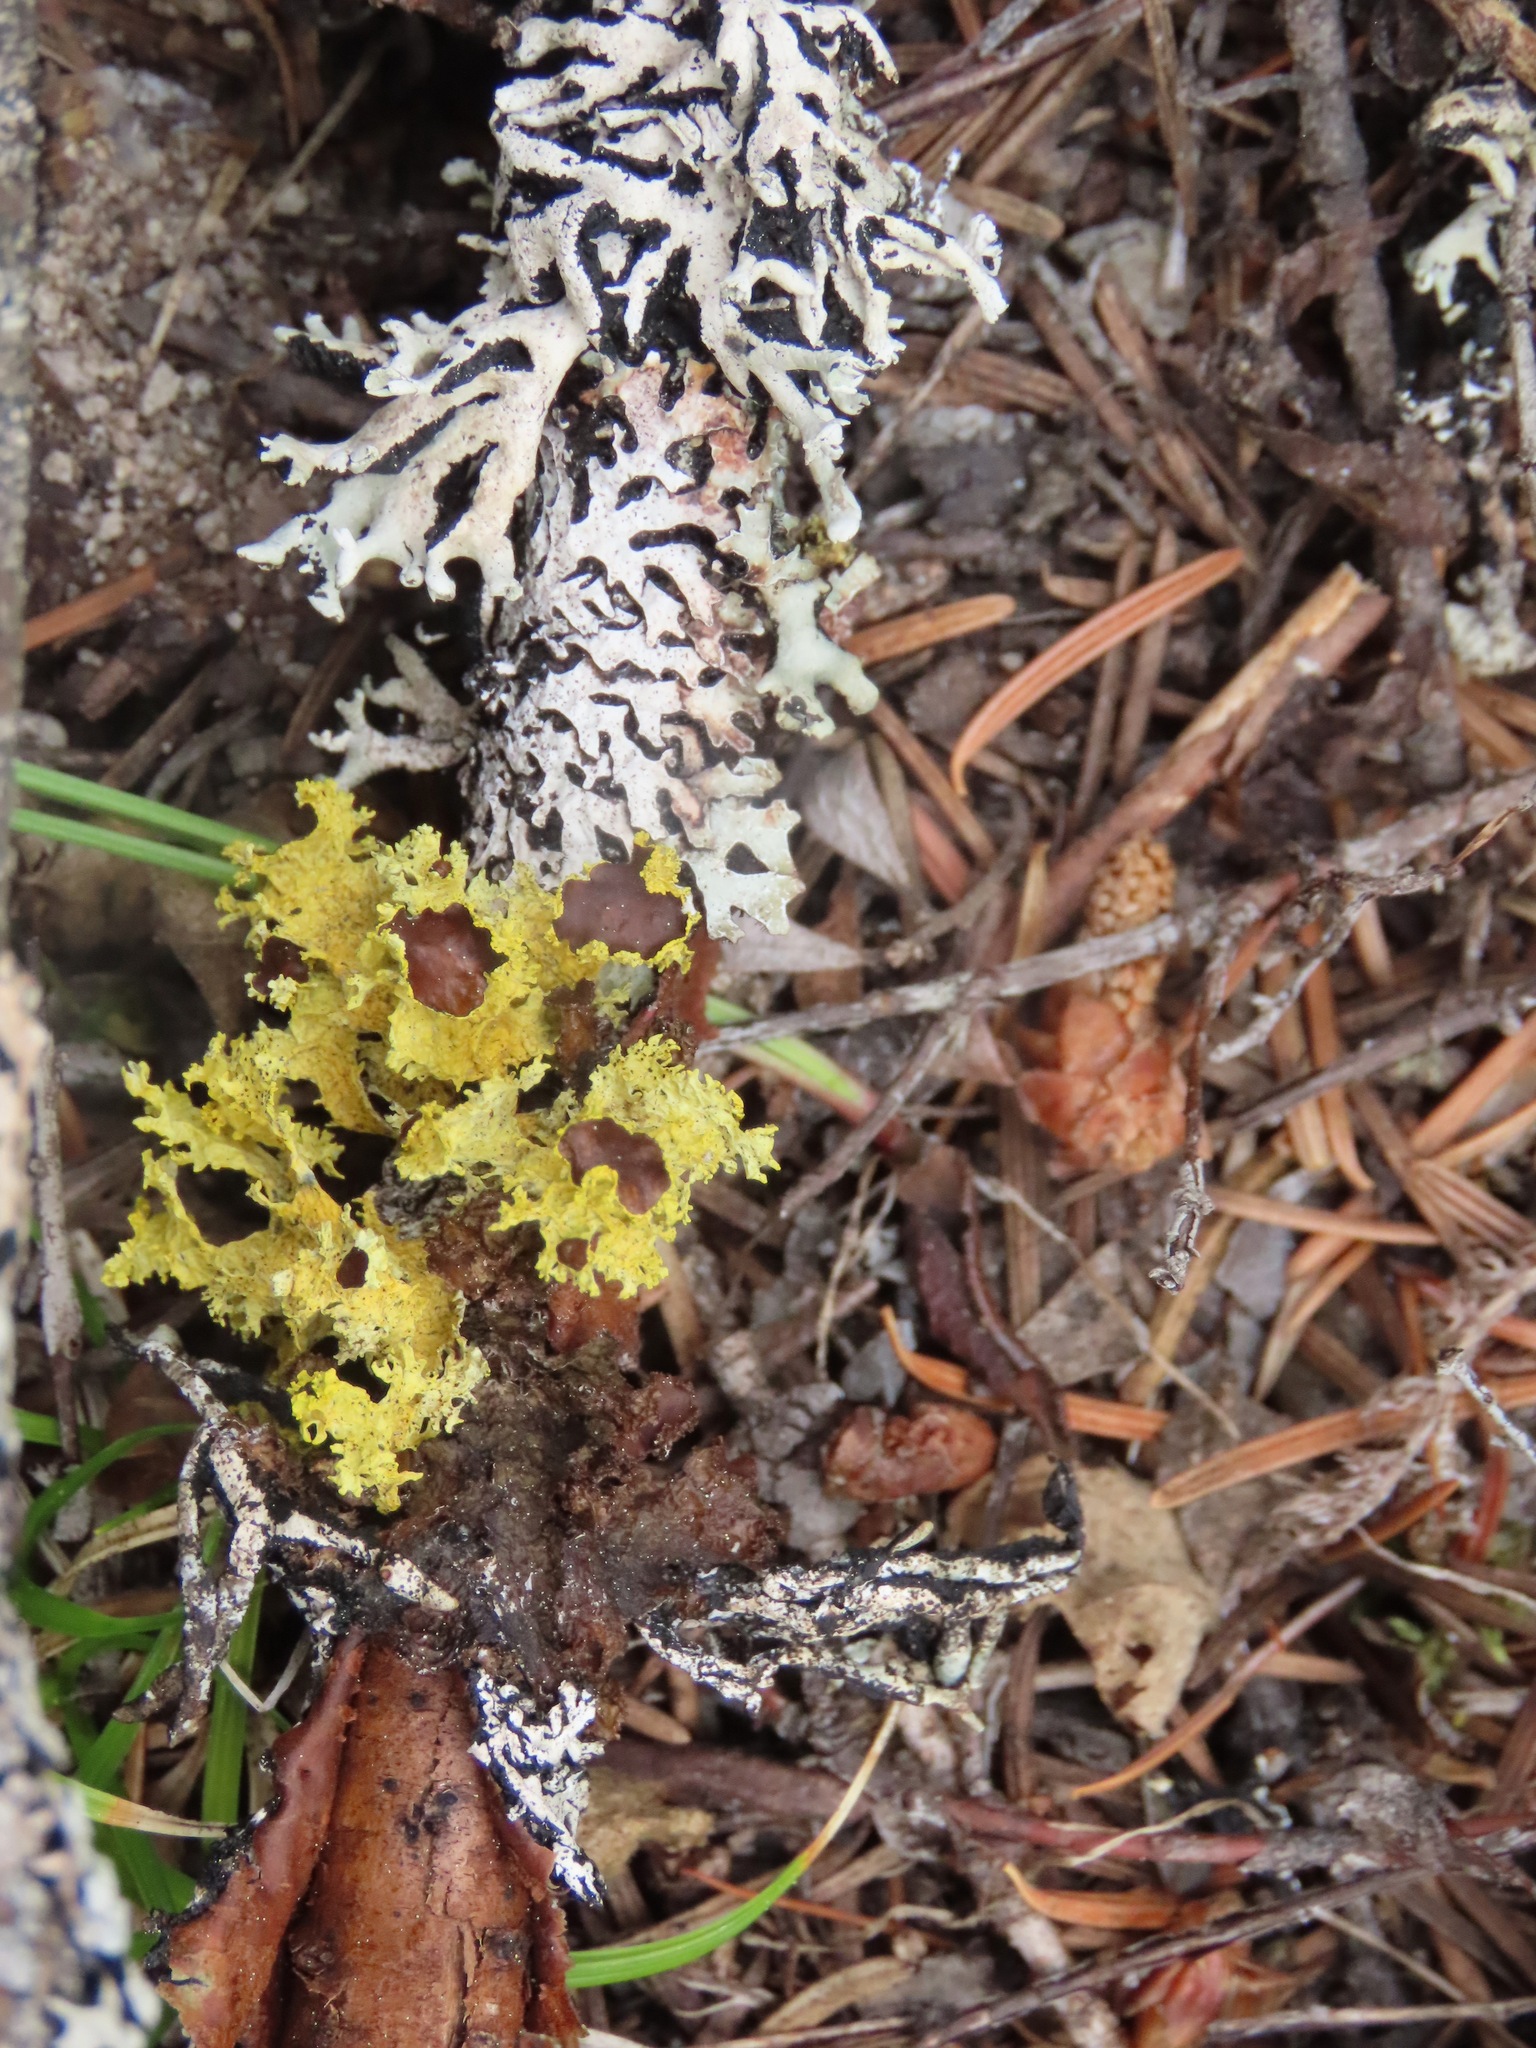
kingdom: Fungi
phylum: Ascomycota
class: Lecanoromycetes
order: Lecanorales
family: Parmeliaceae
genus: Vulpicida
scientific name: Vulpicida canadensis
